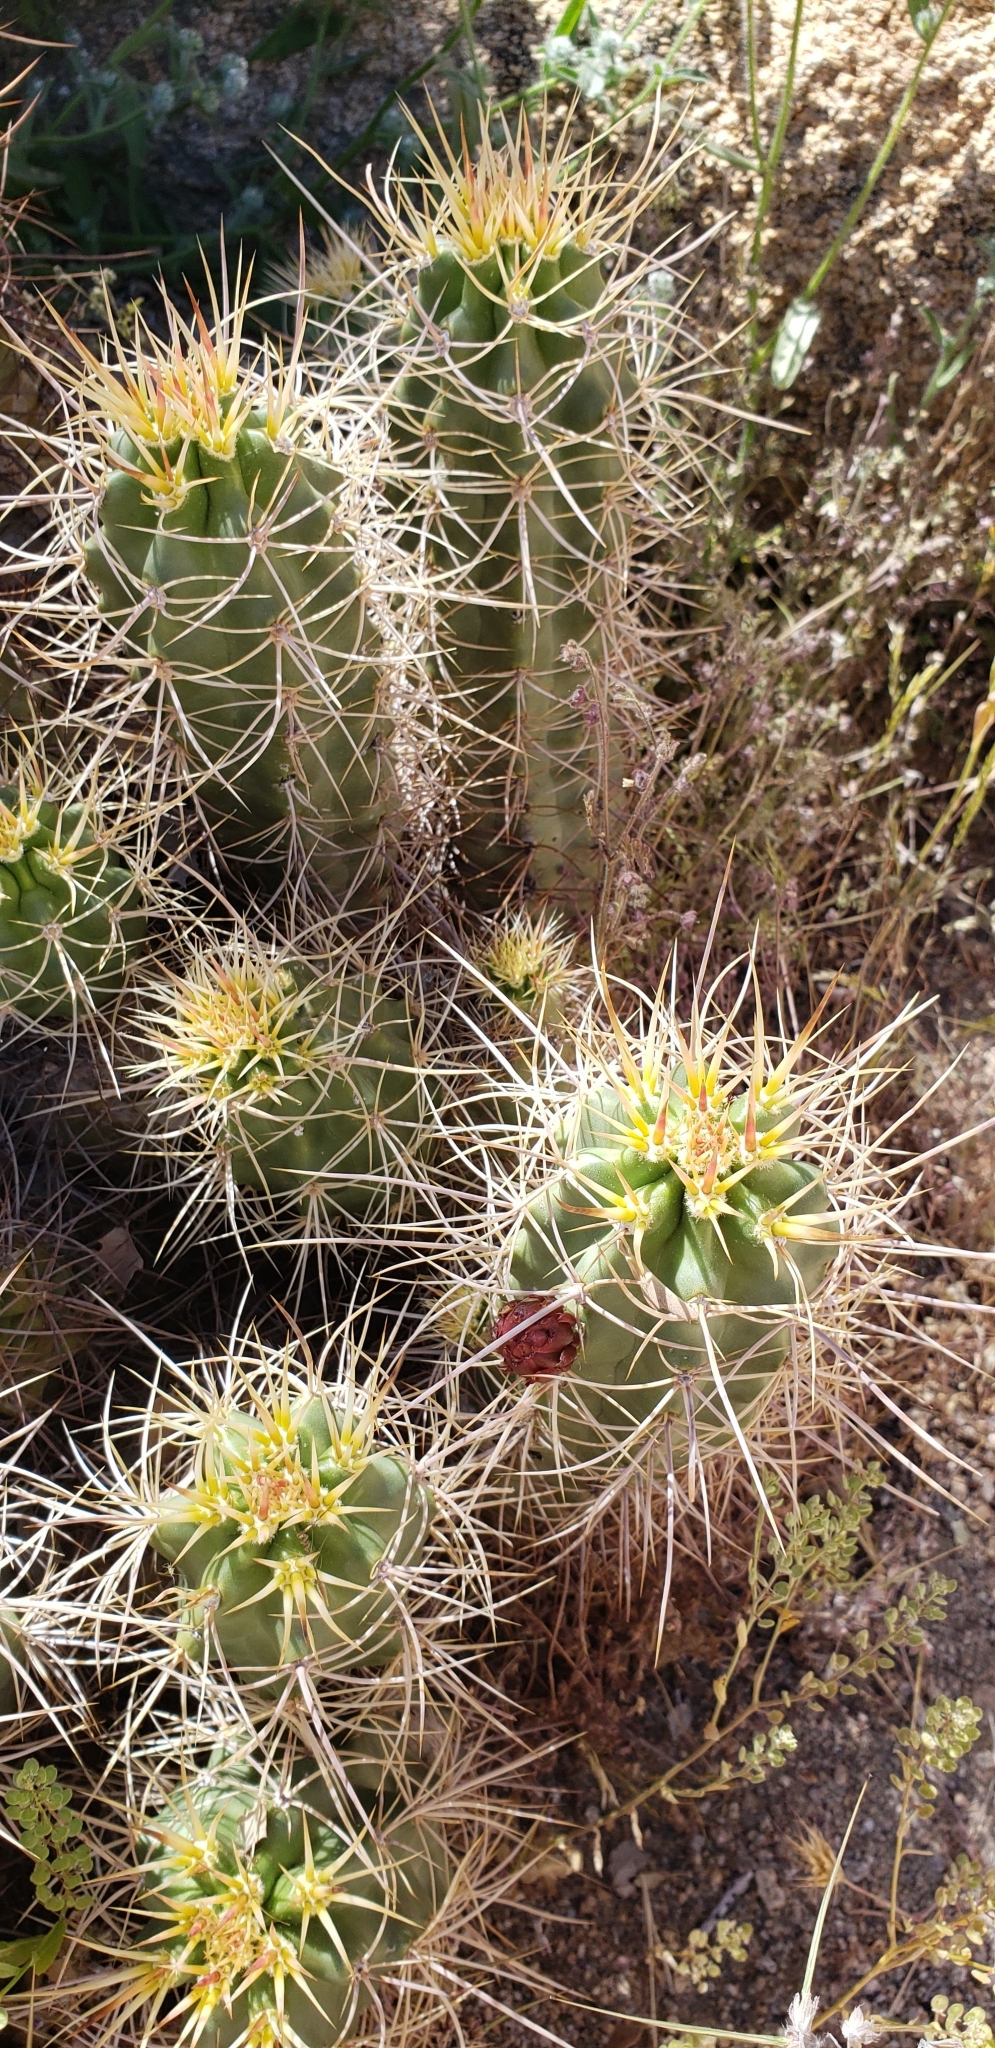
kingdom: Plantae
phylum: Tracheophyta
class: Magnoliopsida
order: Caryophyllales
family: Cactaceae
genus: Echinocereus
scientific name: Echinocereus triglochidiatus
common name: Claretcup hedgehog
